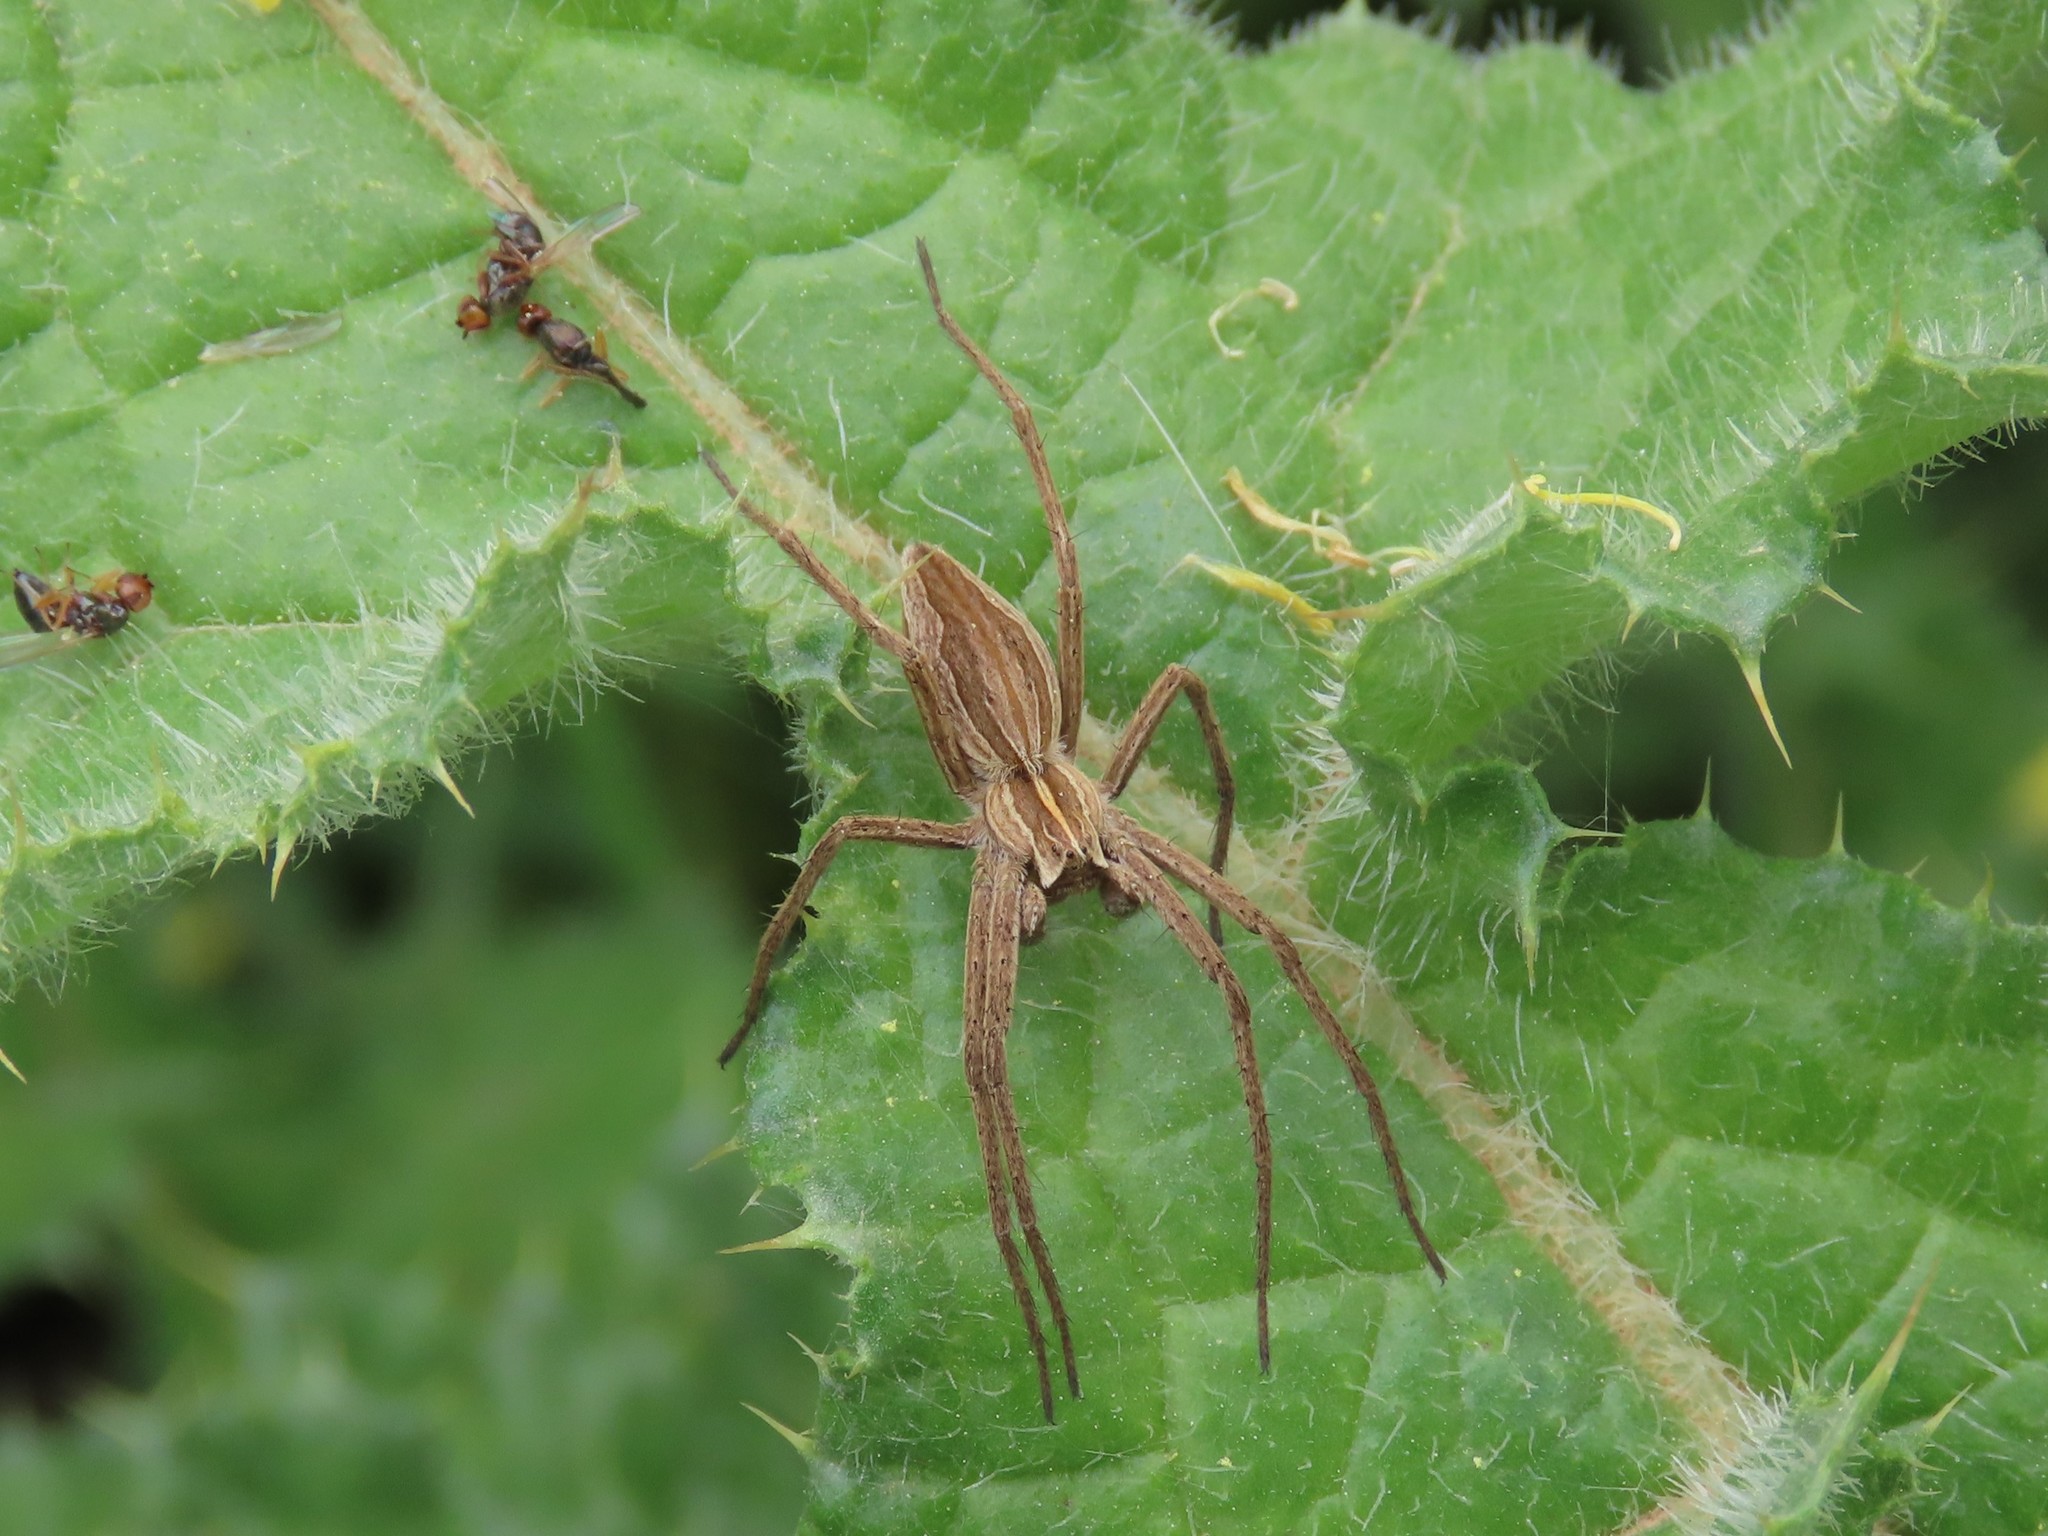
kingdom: Animalia
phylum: Arthropoda
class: Arachnida
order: Araneae
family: Pisauridae
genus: Pisaura
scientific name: Pisaura mirabilis
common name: Tent spider
